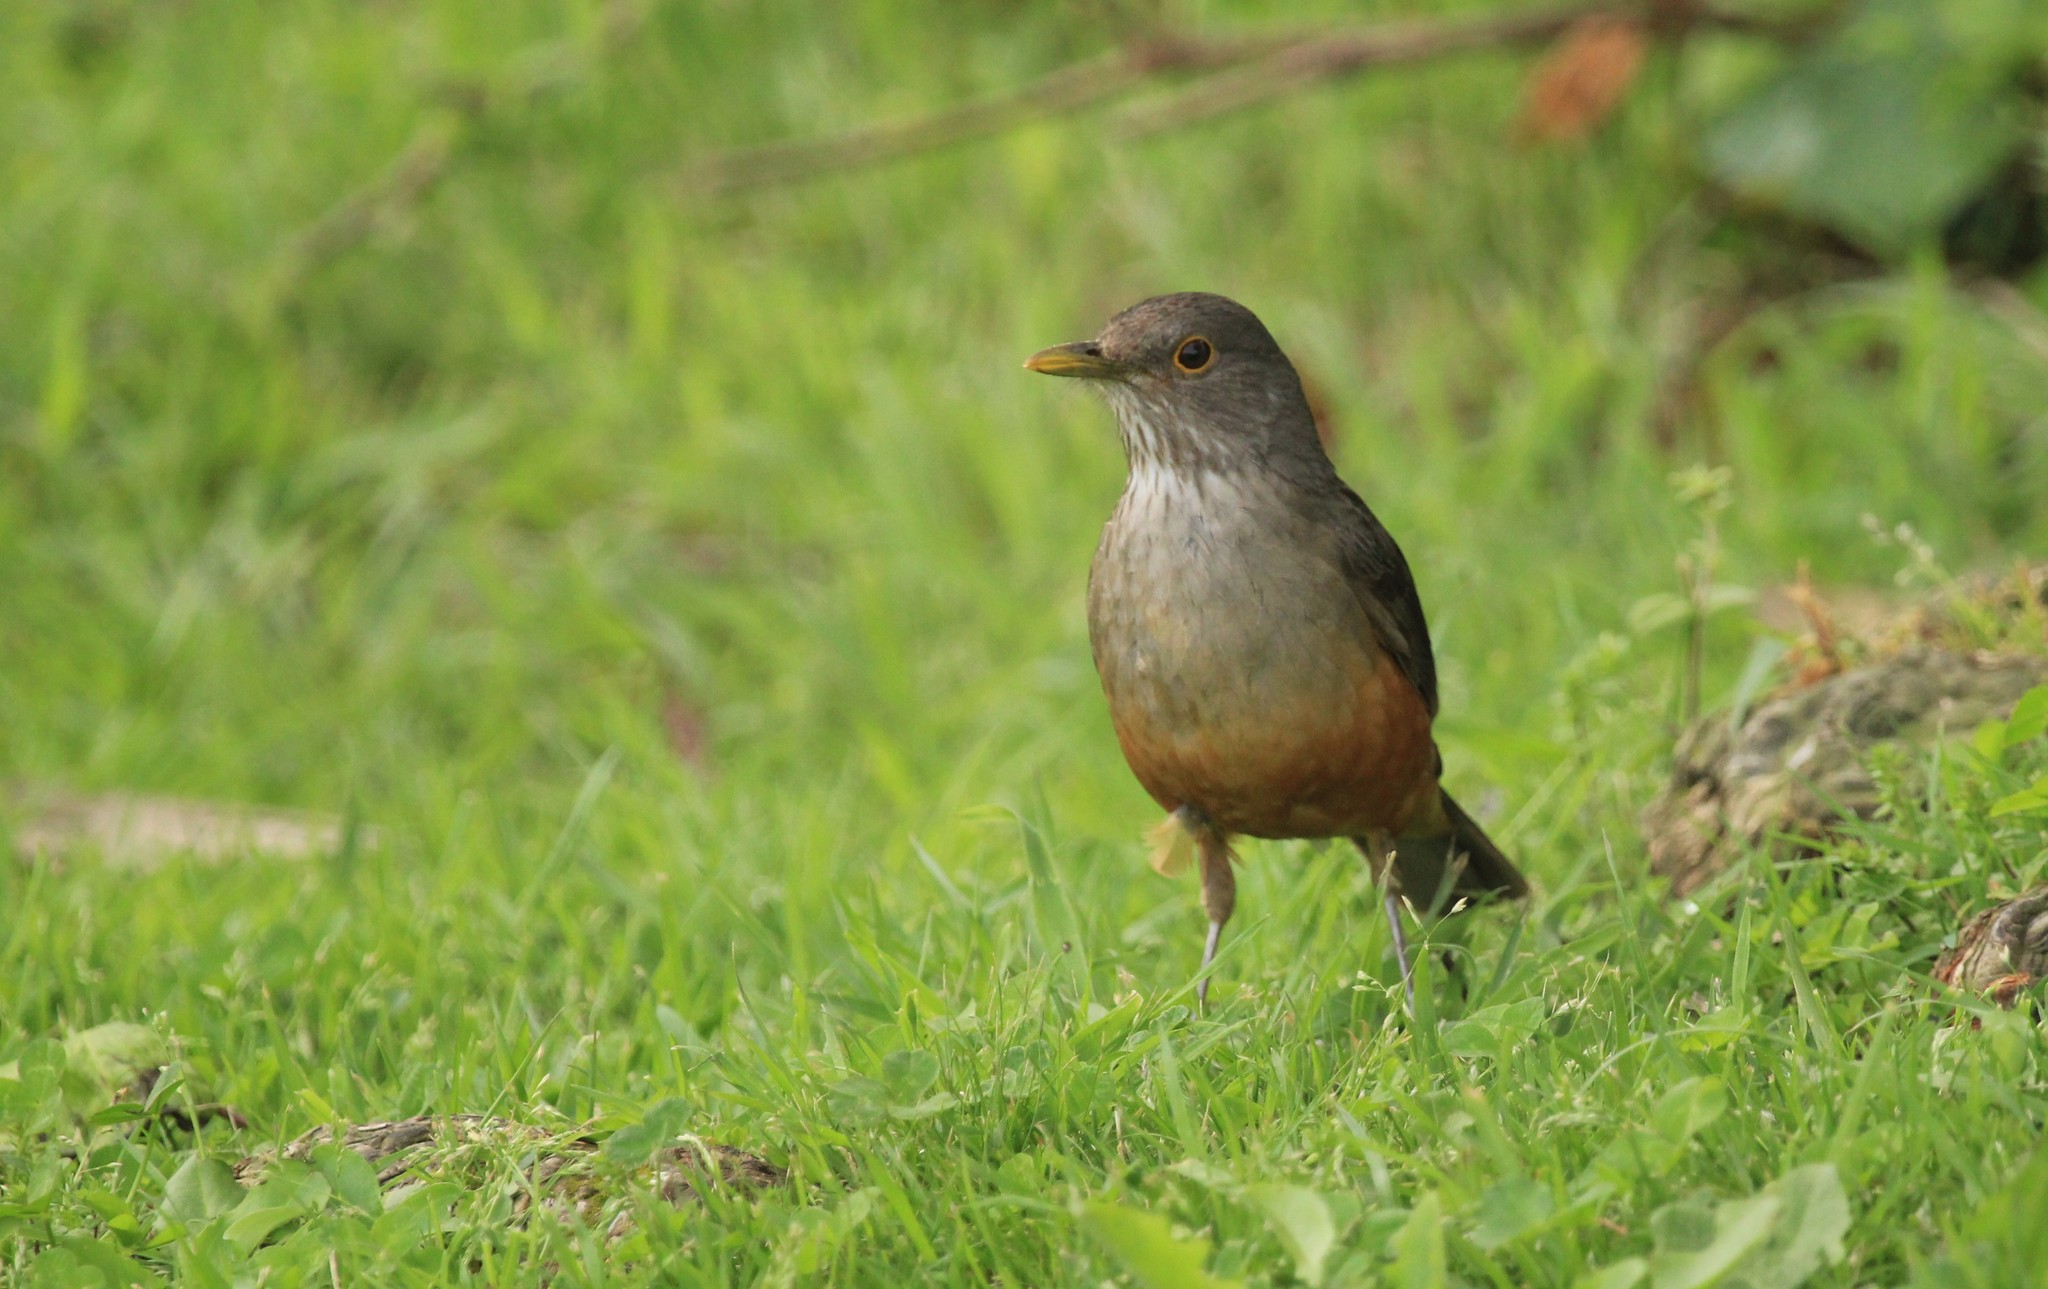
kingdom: Animalia
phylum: Chordata
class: Aves
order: Passeriformes
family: Turdidae
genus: Turdus
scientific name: Turdus rufiventris
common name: Rufous-bellied thrush
